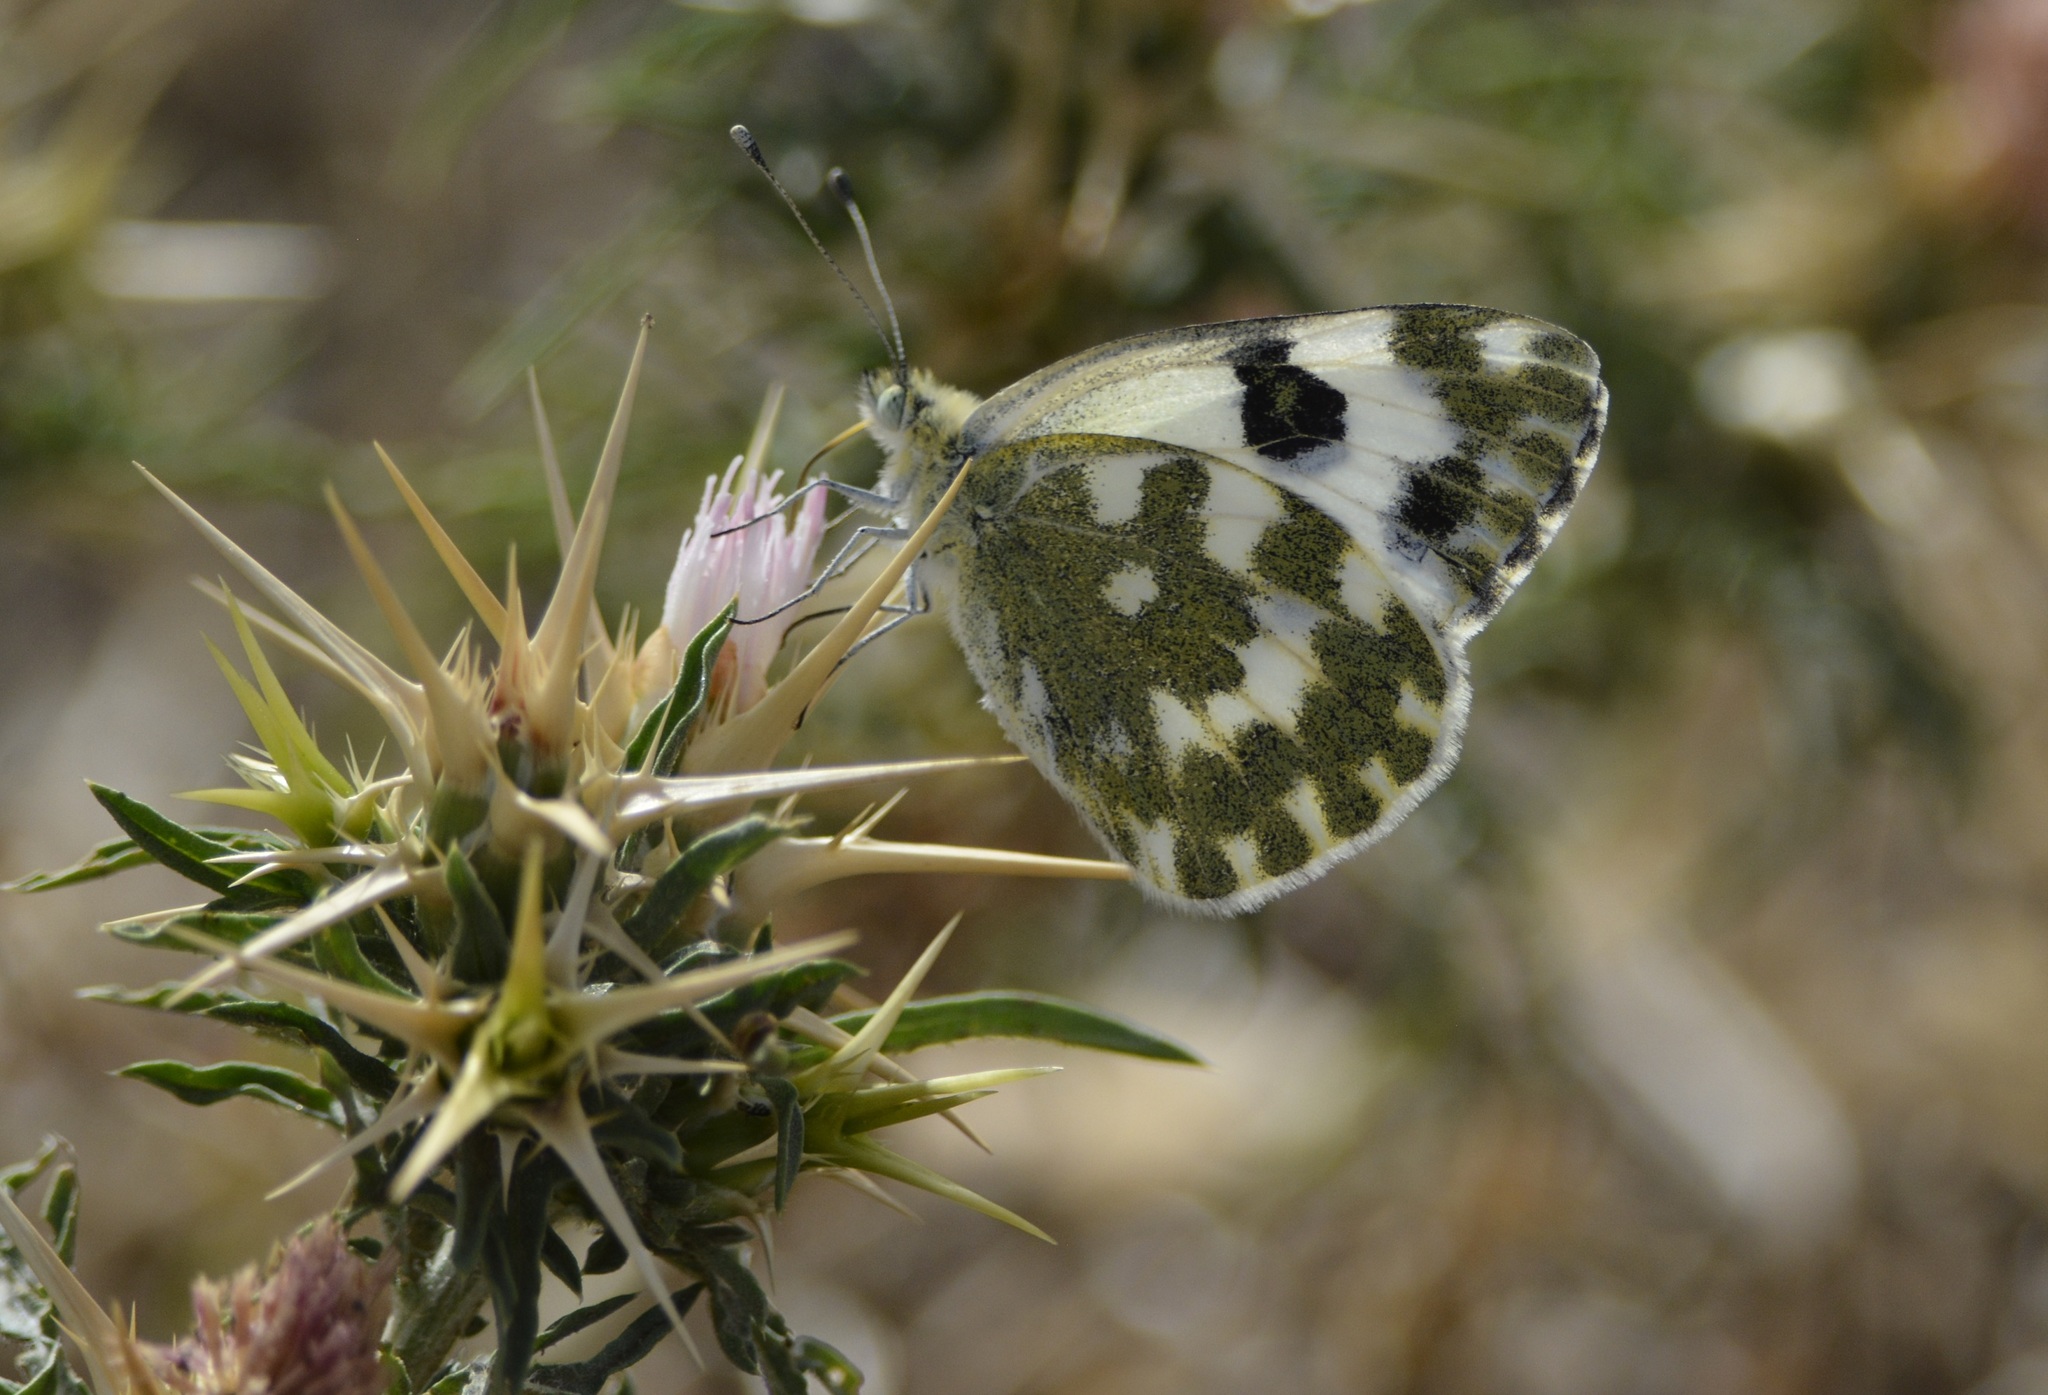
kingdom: Animalia
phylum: Arthropoda
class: Insecta
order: Lepidoptera
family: Pieridae
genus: Pontia
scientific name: Pontia daplidice
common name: Bath white
